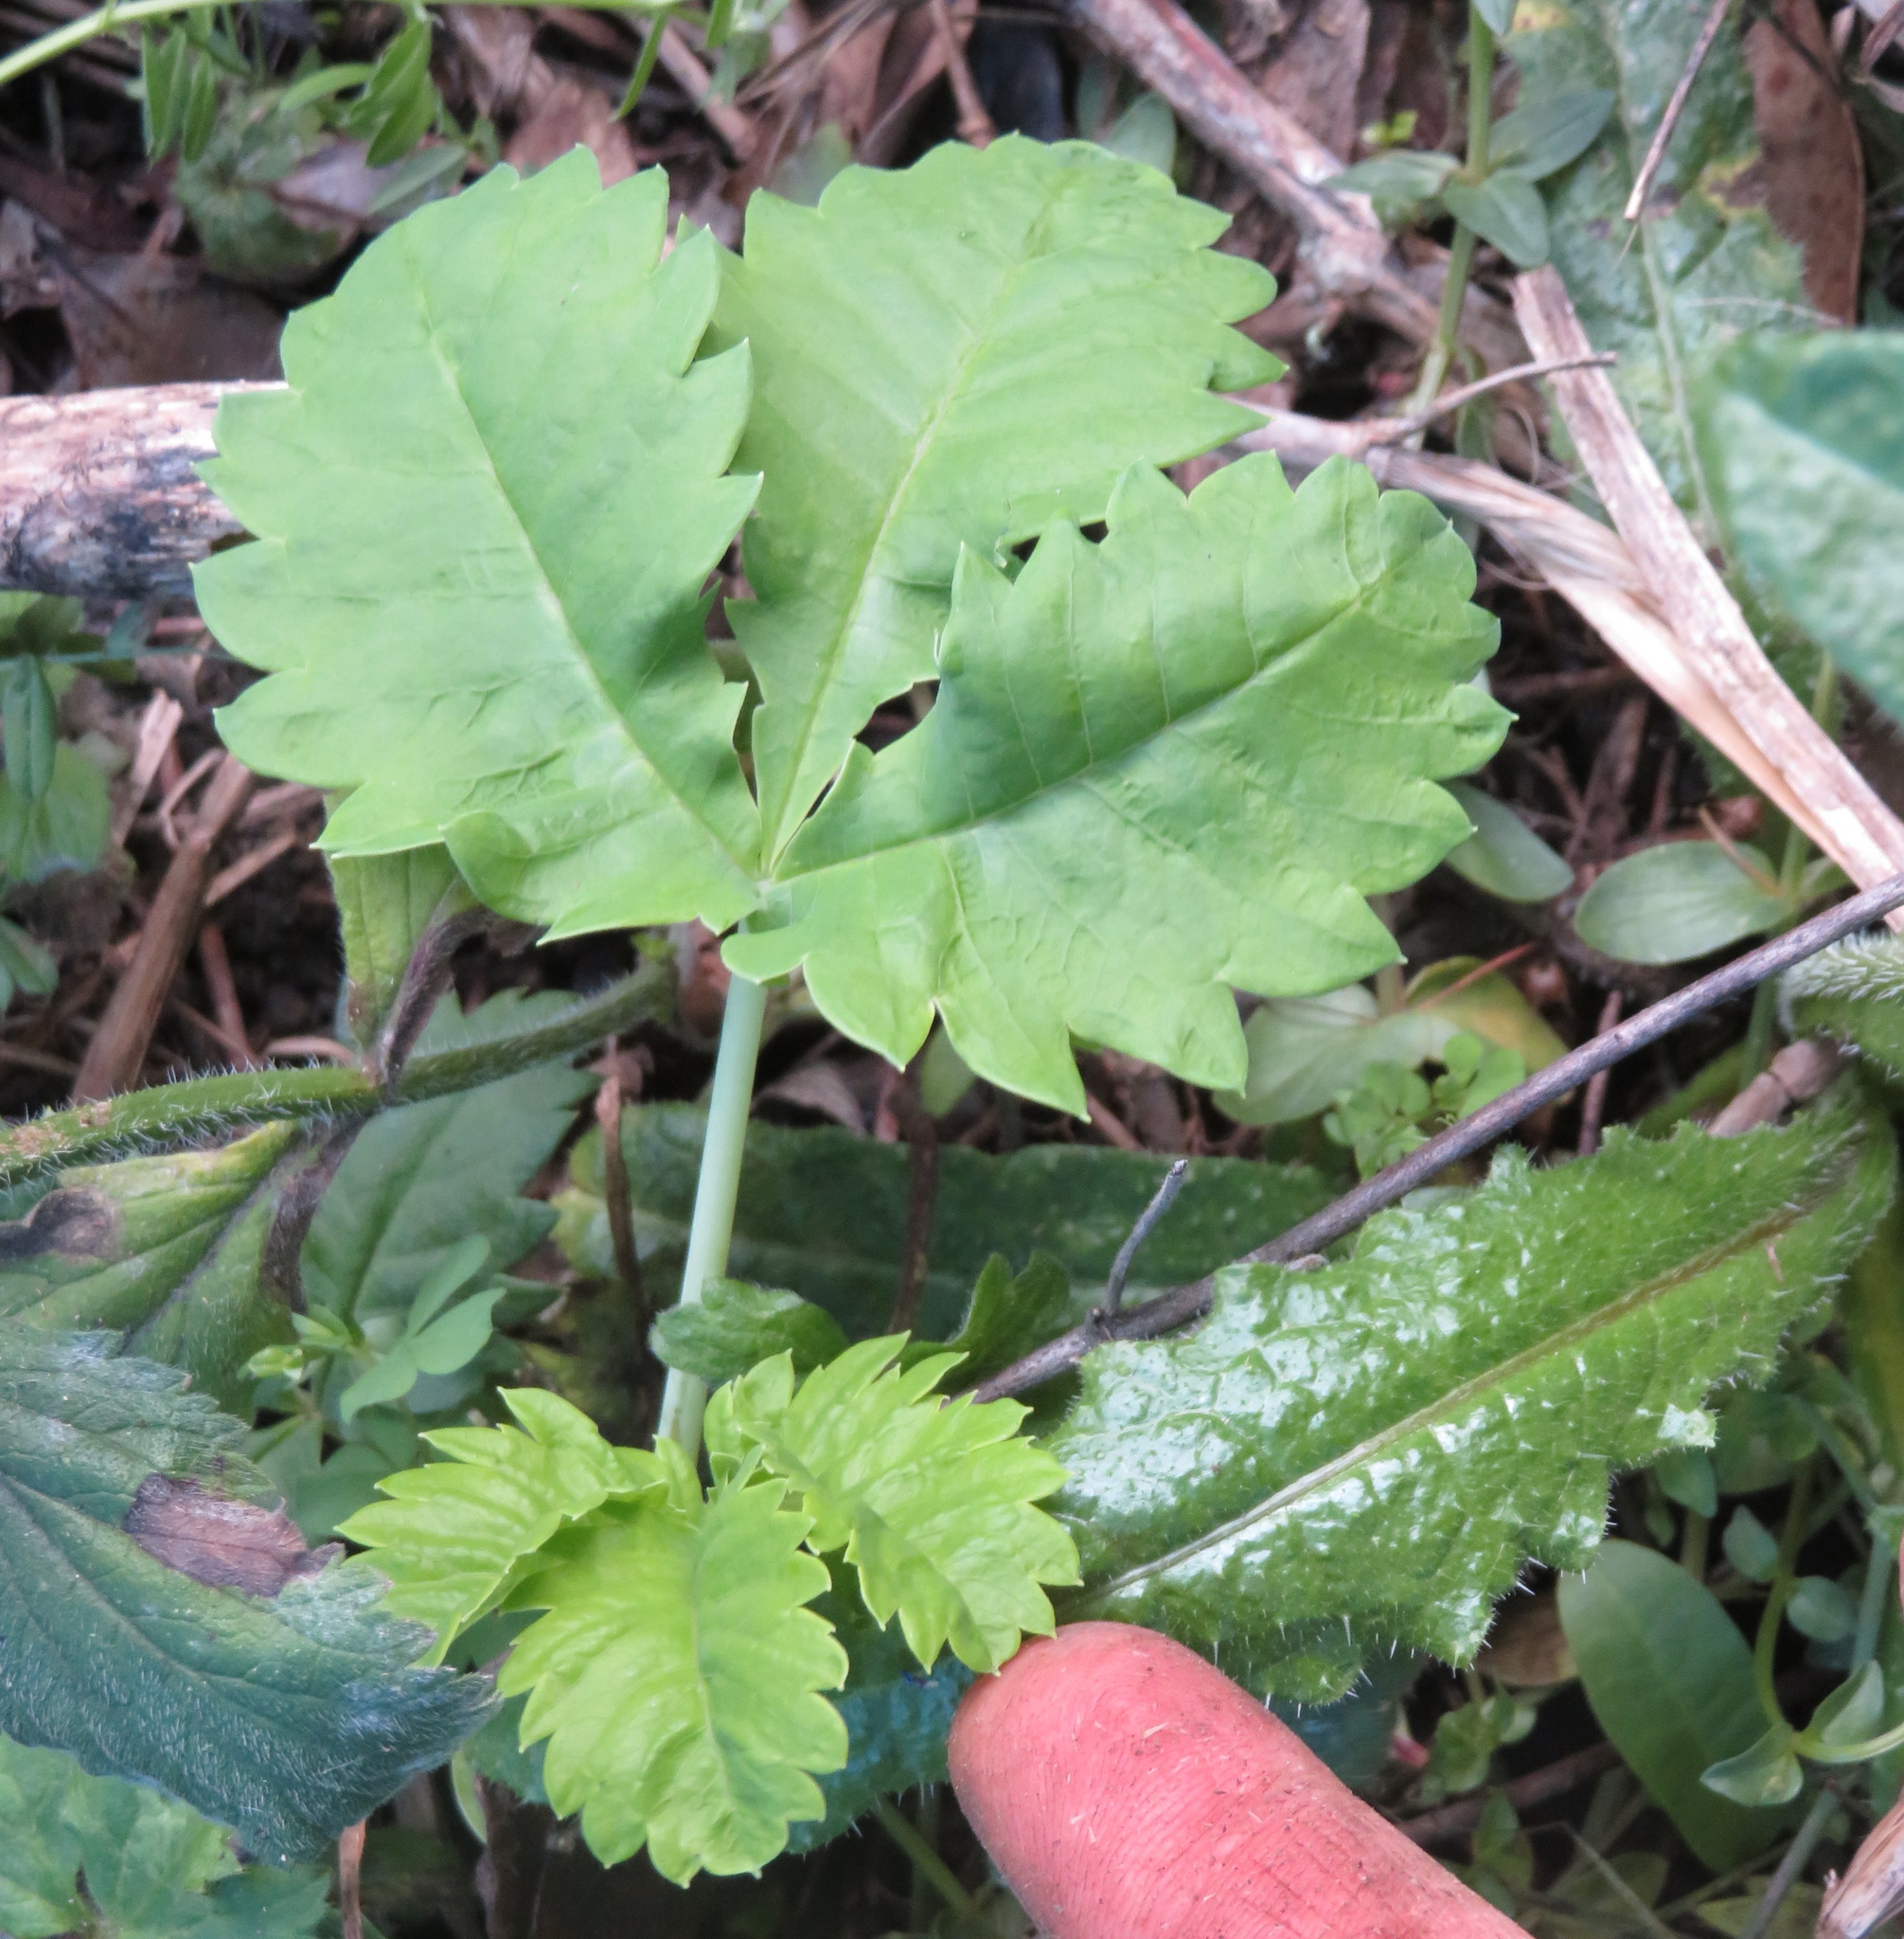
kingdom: Plantae
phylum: Tracheophyta
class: Magnoliopsida
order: Geraniales
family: Melianthaceae
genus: Melianthus
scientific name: Melianthus major
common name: Honey-flower
